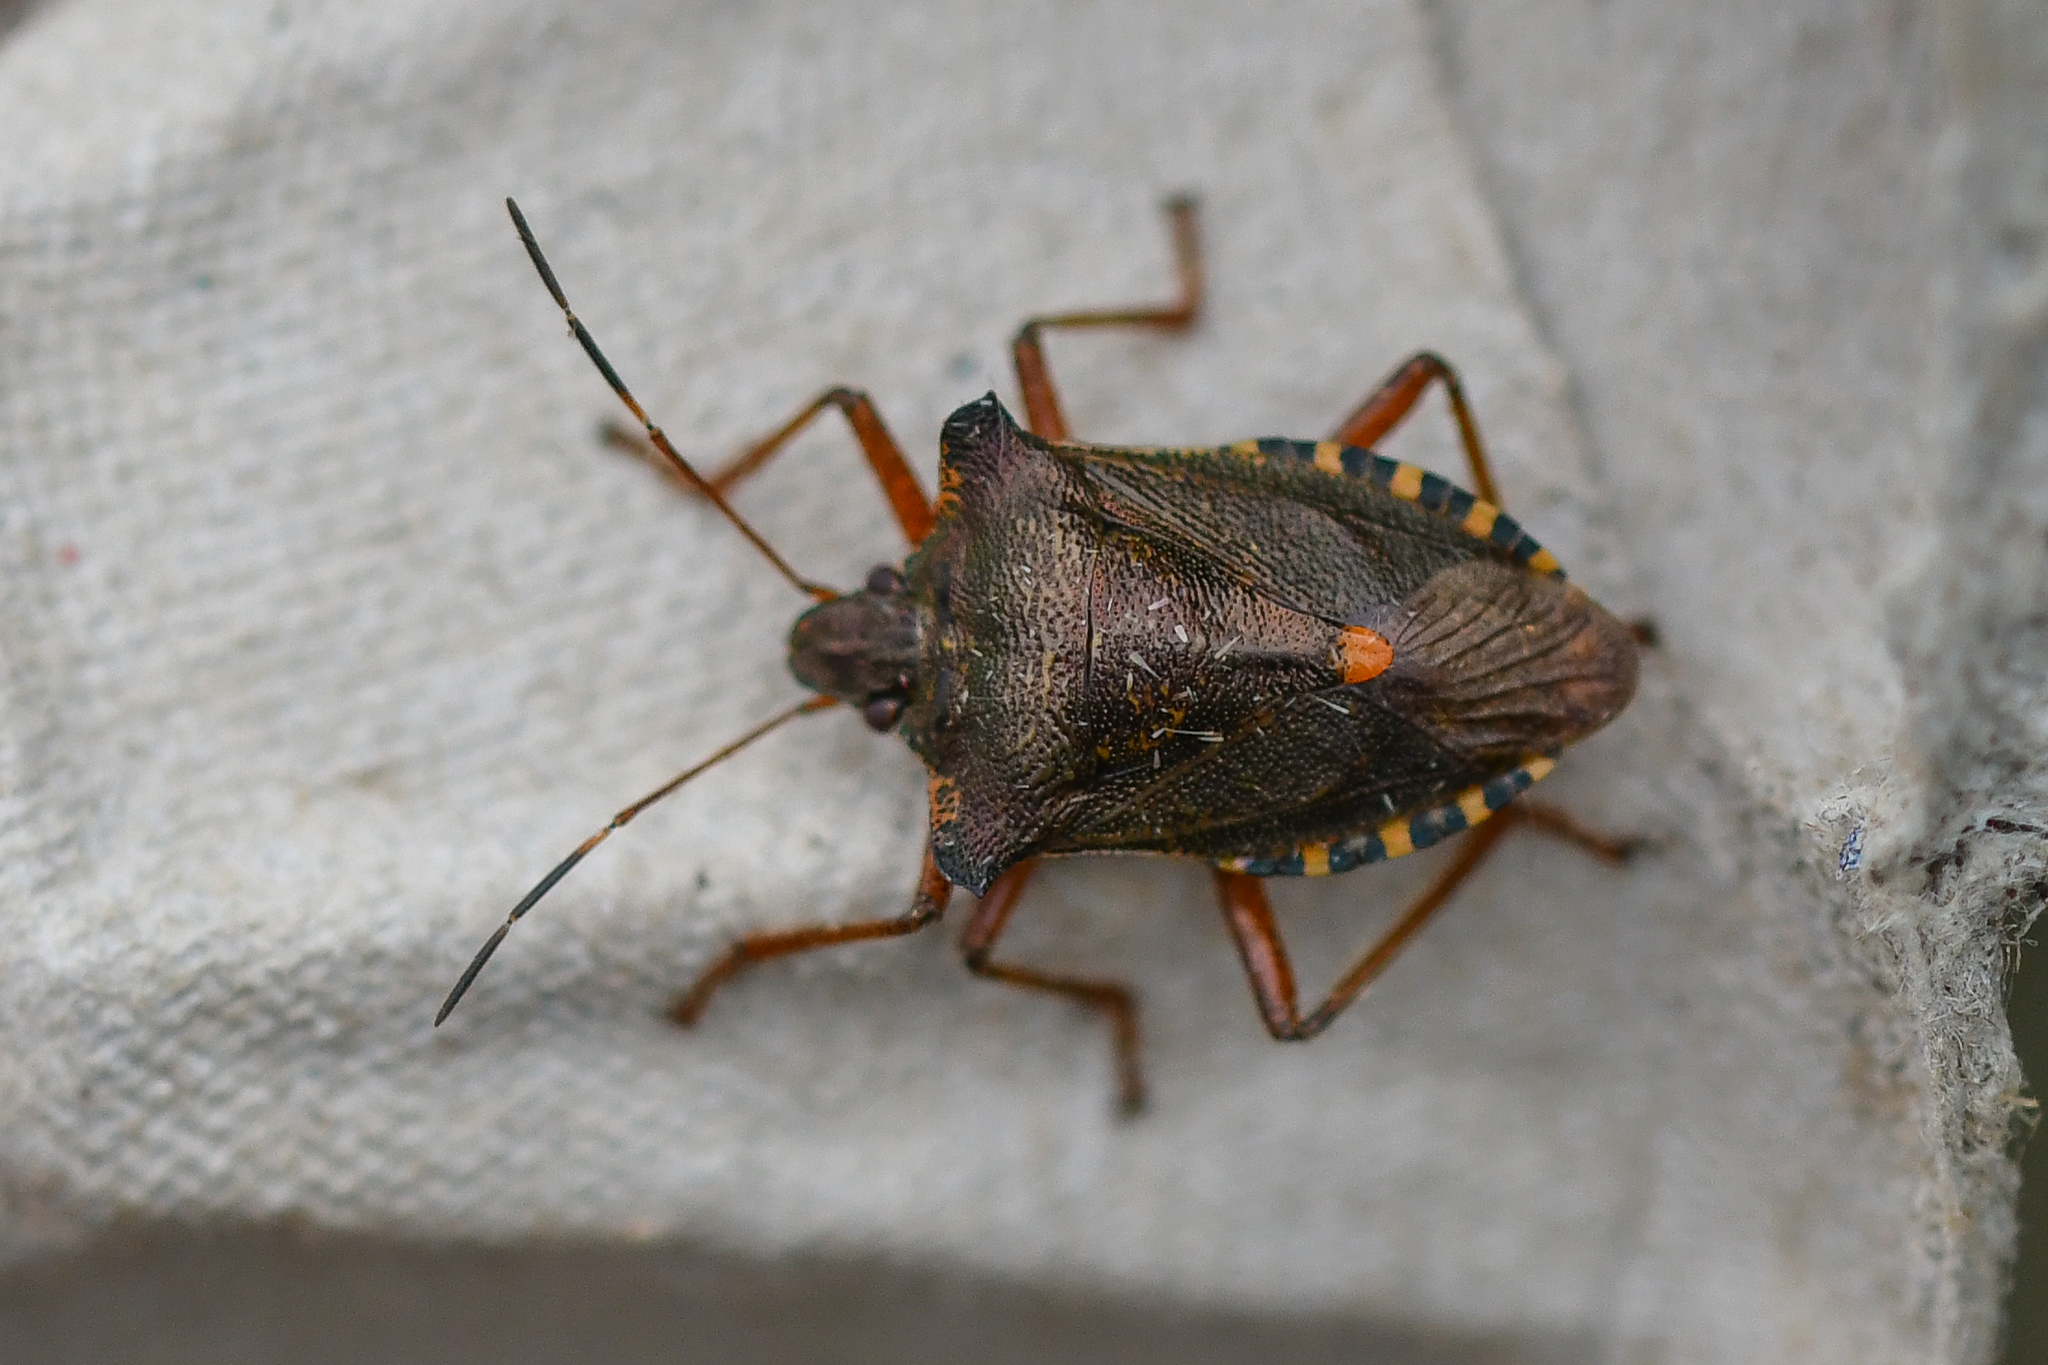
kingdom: Animalia
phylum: Arthropoda
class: Insecta
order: Hemiptera
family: Pentatomidae
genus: Pentatoma
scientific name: Pentatoma rufipes
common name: Forest bug
